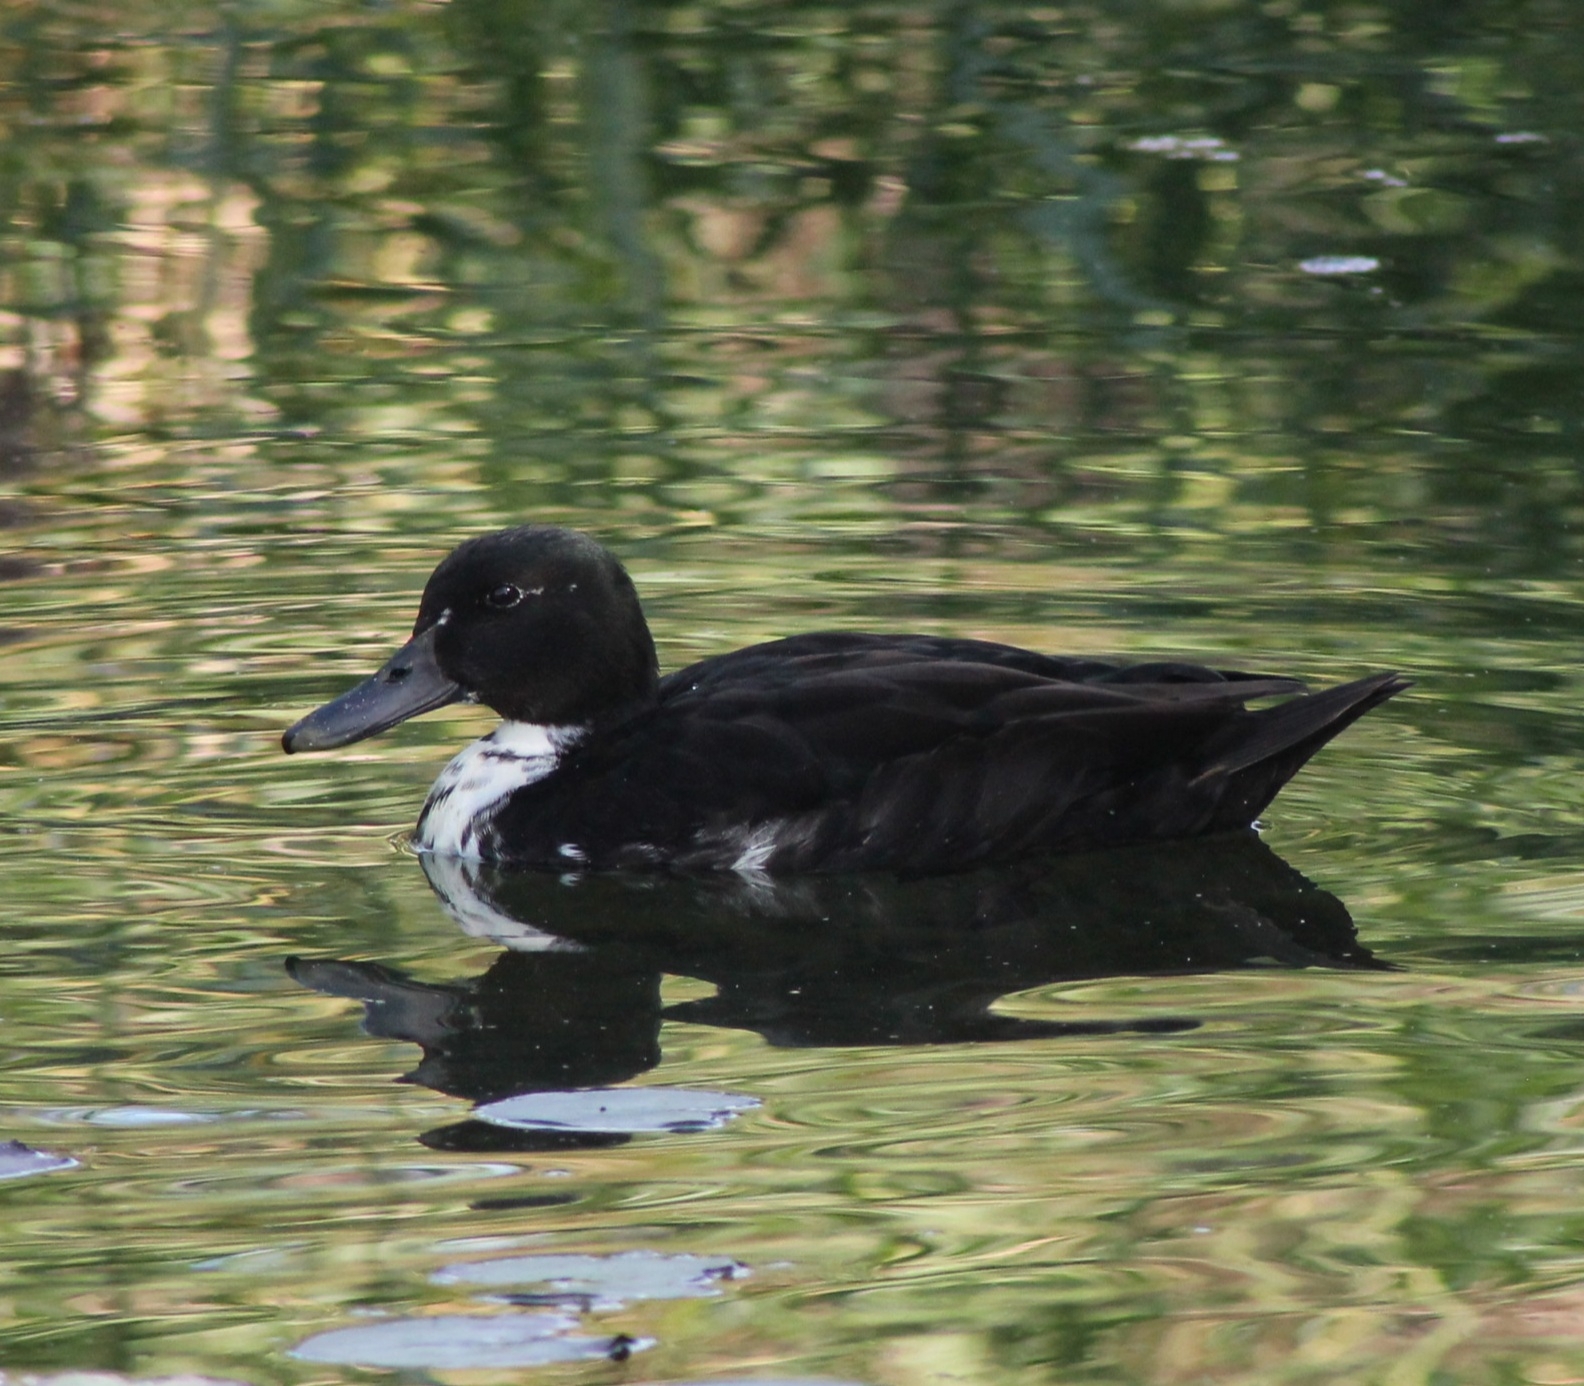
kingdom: Animalia
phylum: Chordata
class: Aves
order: Anseriformes
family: Anatidae
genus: Anas
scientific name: Anas platyrhynchos
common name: Mallard
